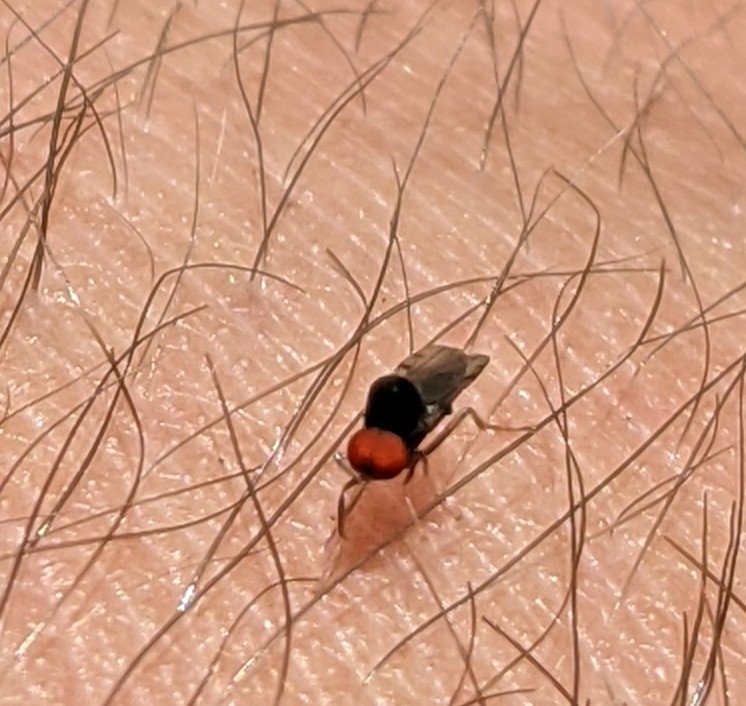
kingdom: Animalia
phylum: Arthropoda
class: Insecta
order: Diptera
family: Hybotidae
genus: Syneches
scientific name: Syneches simplex
